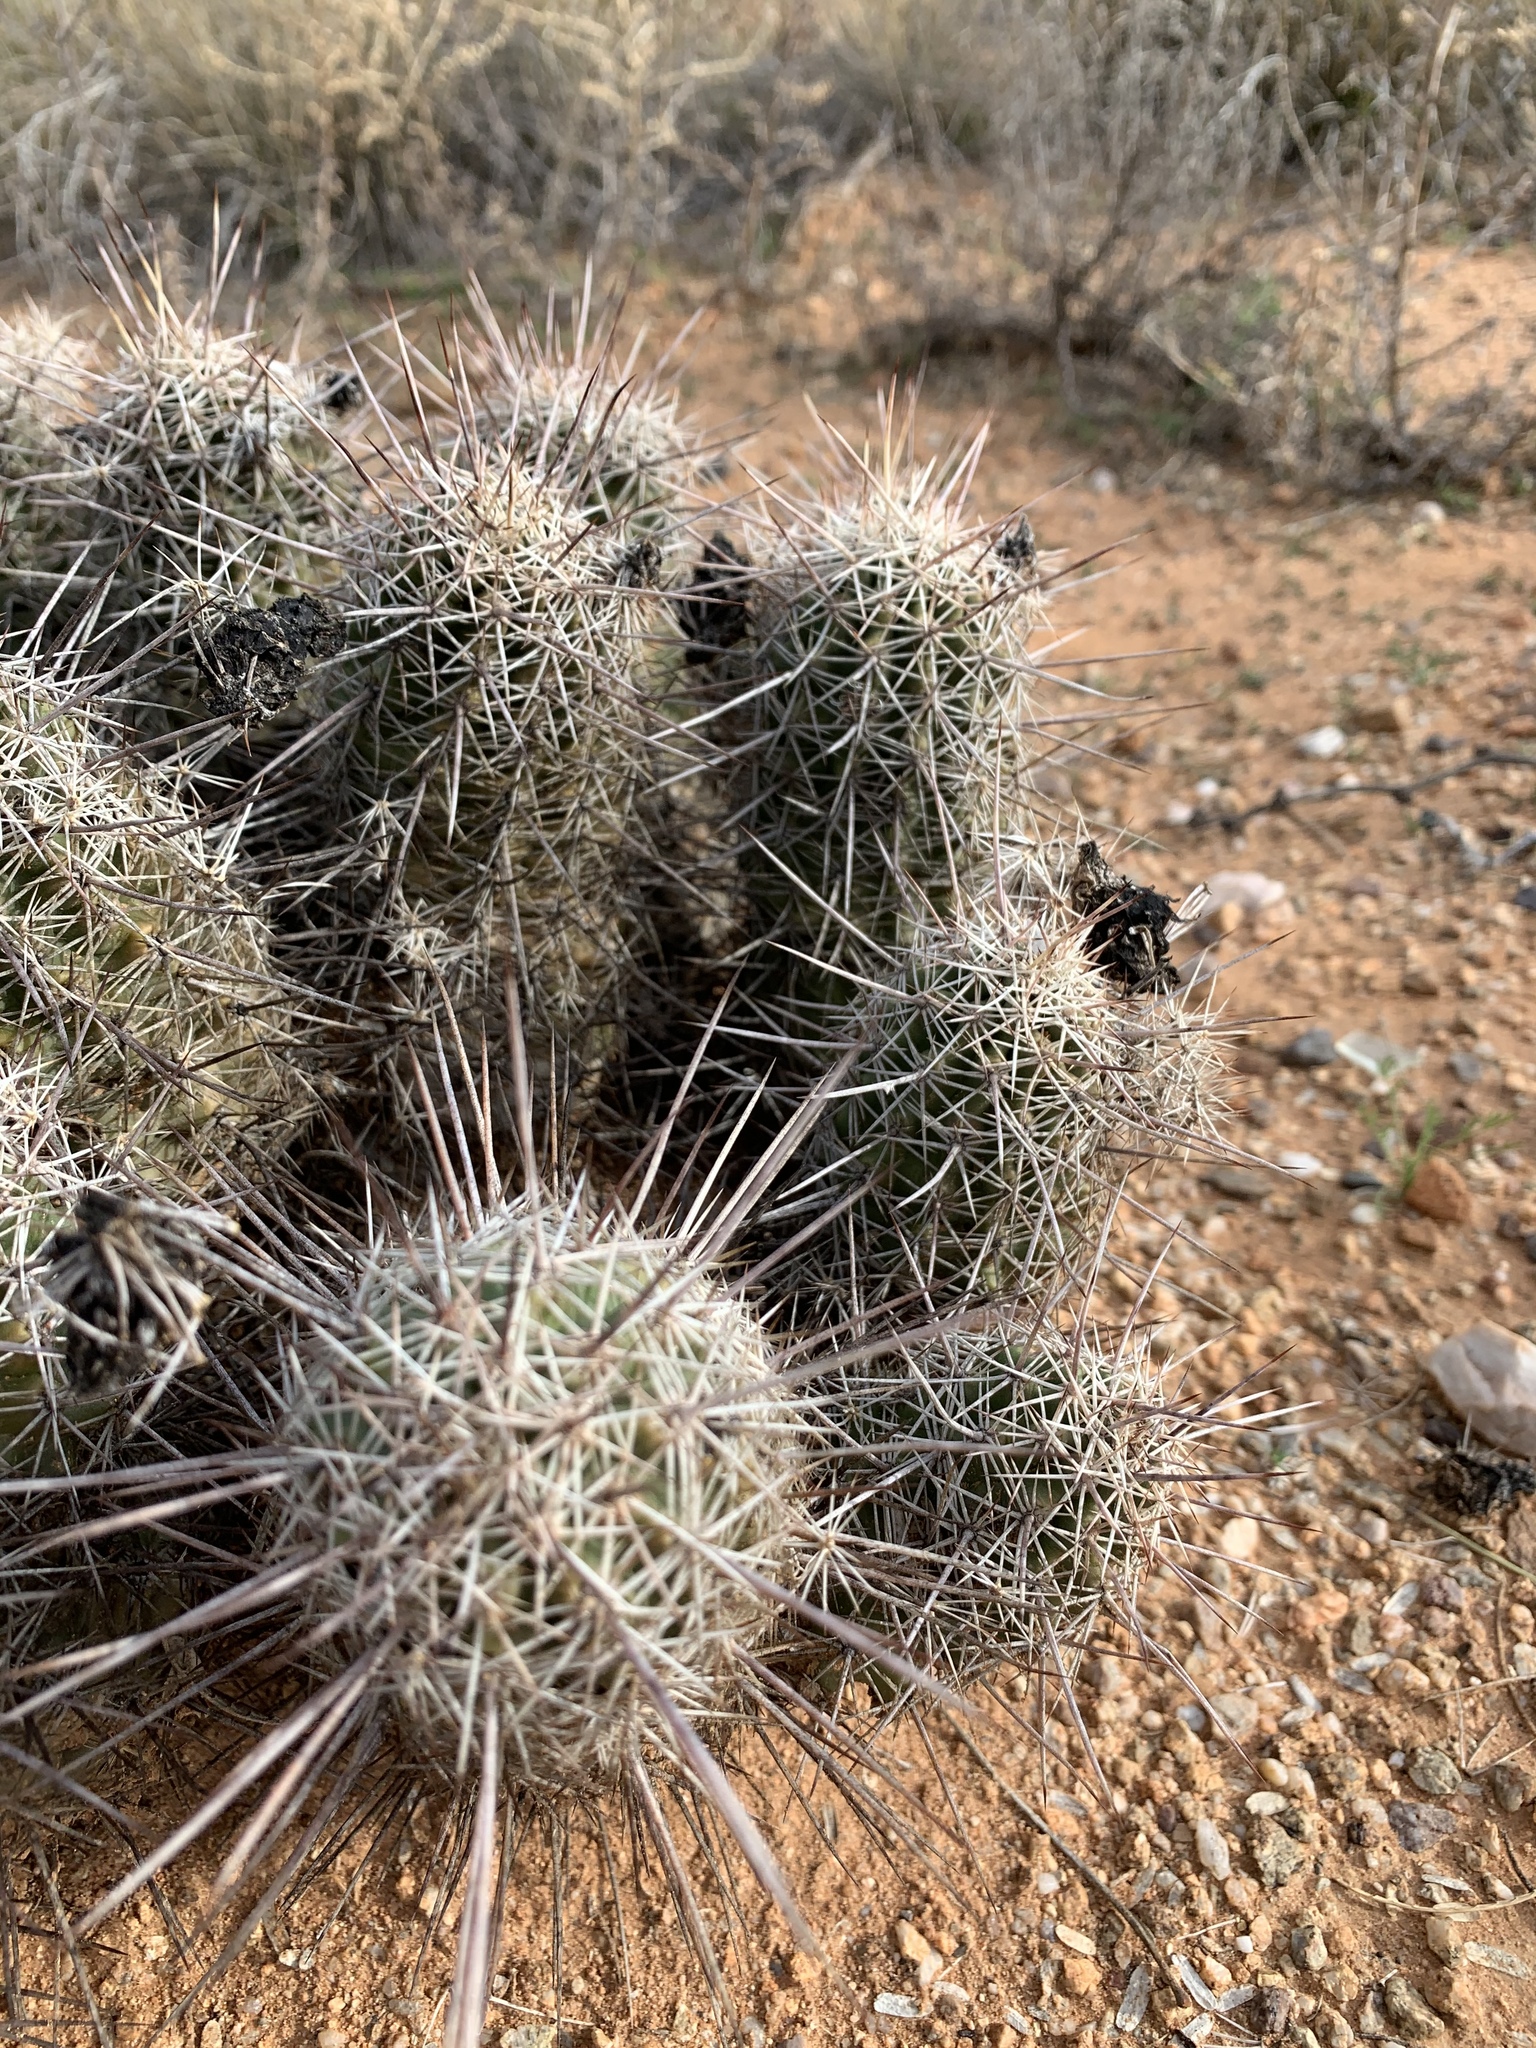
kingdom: Plantae
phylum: Tracheophyta
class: Magnoliopsida
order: Caryophyllales
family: Cactaceae
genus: Echinocereus
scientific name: Echinocereus fasciculatus
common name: Bundle hedgehog
